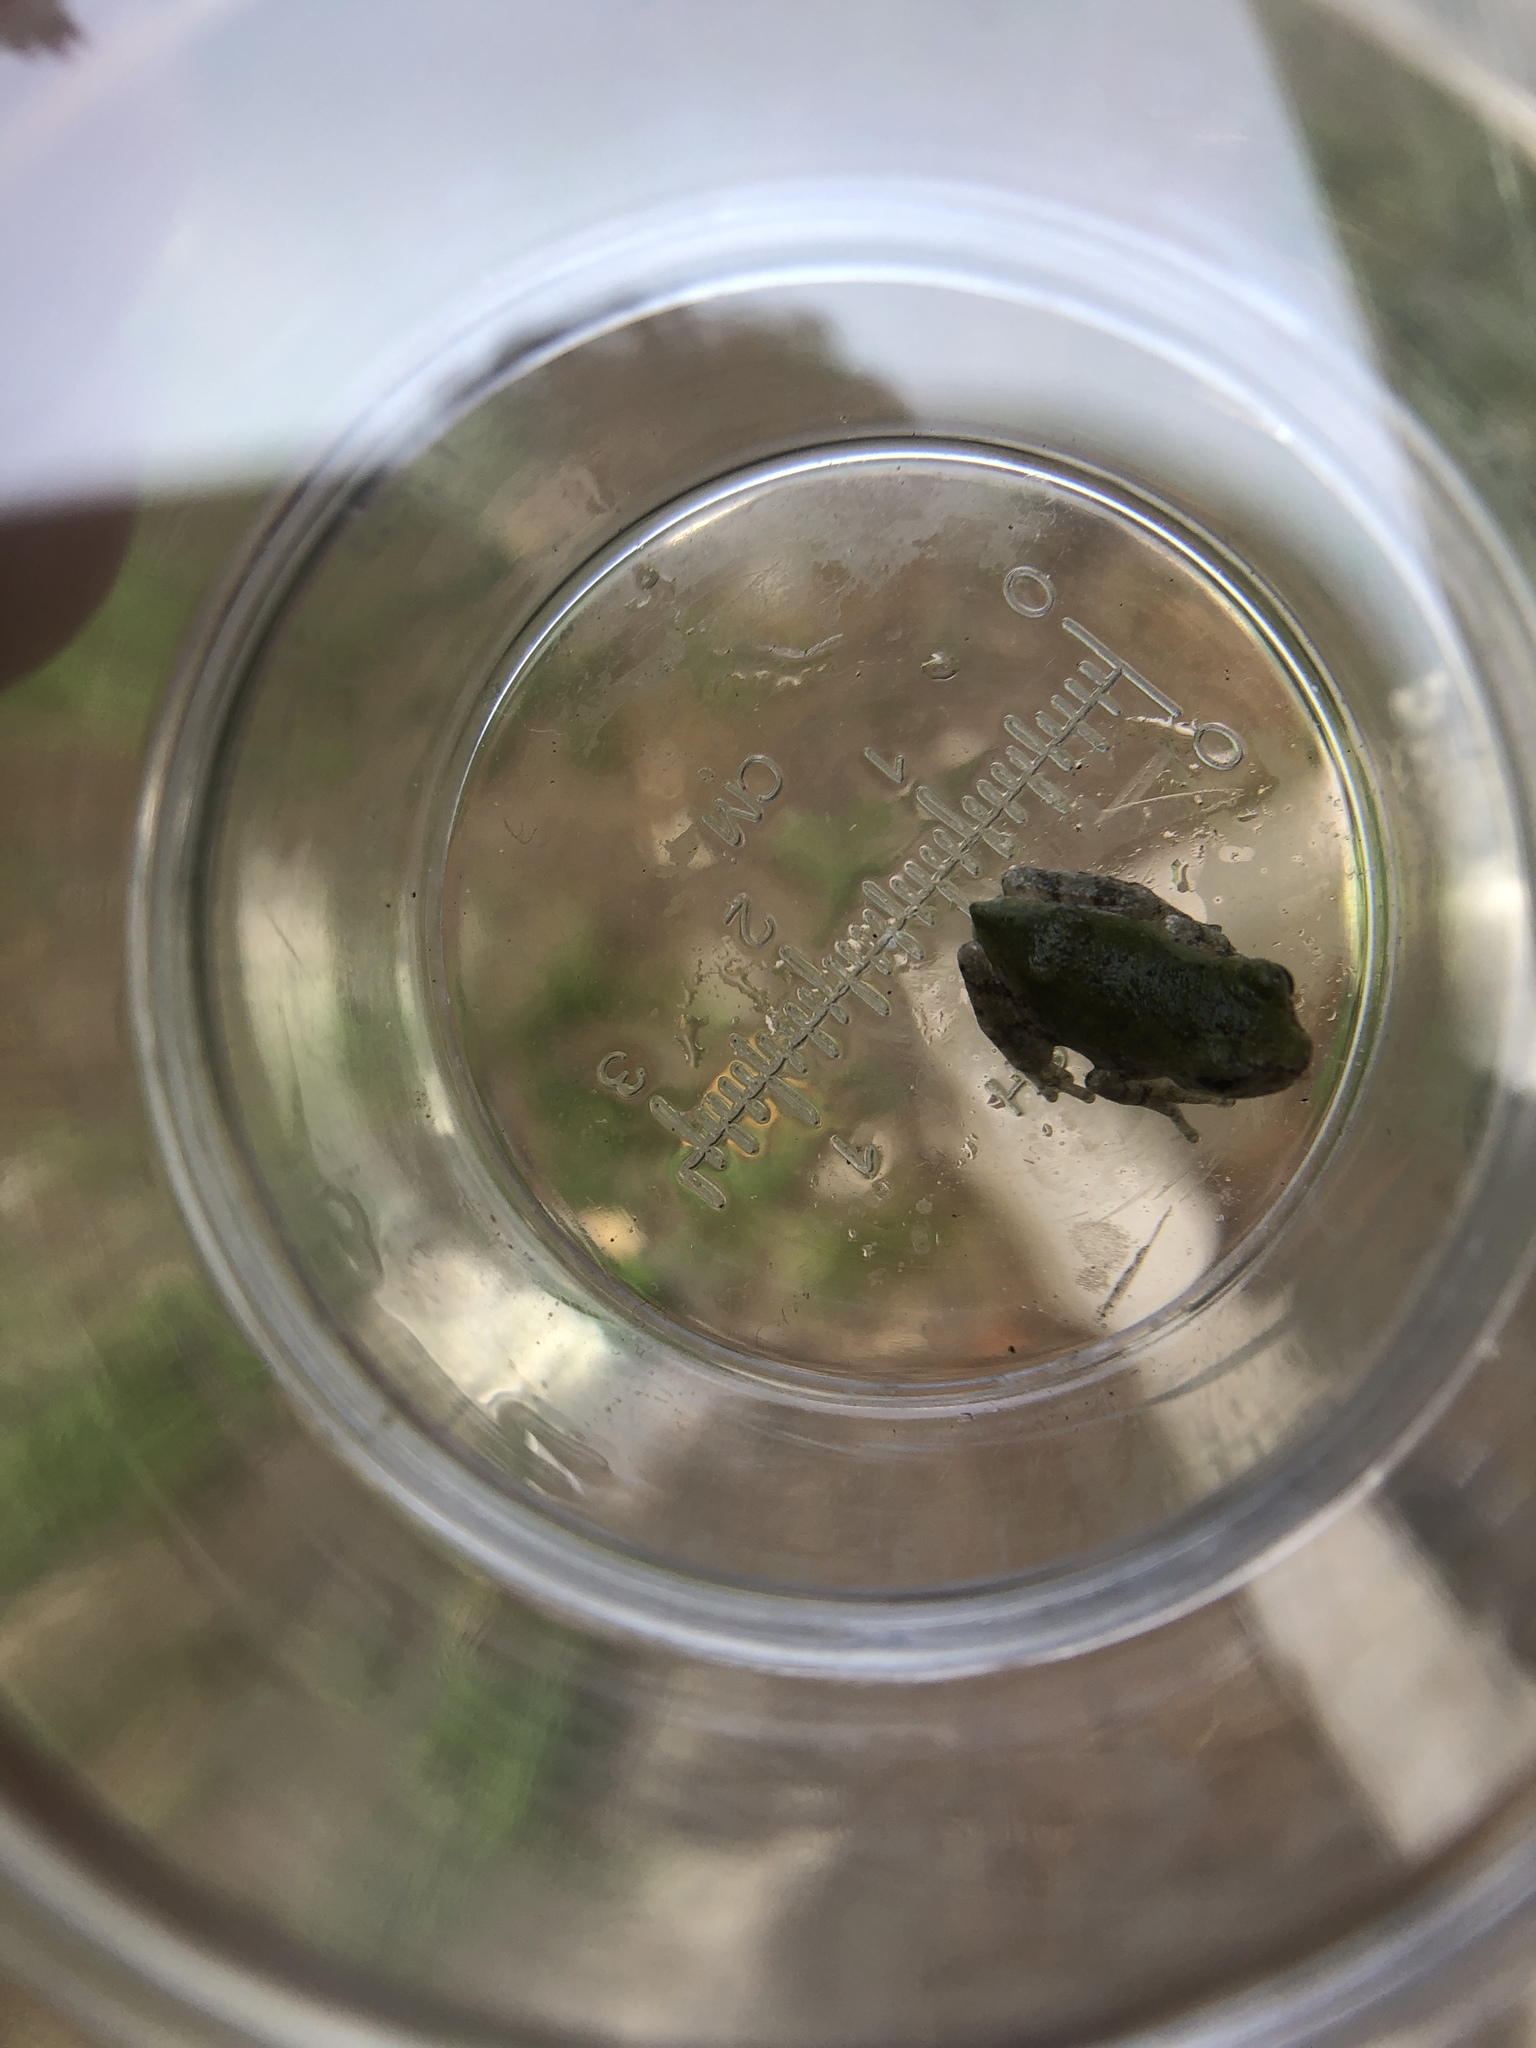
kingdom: Animalia
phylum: Chordata
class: Amphibia
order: Anura
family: Hylidae
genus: Dryophytes
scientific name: Dryophytes versicolor
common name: Gray treefrog
